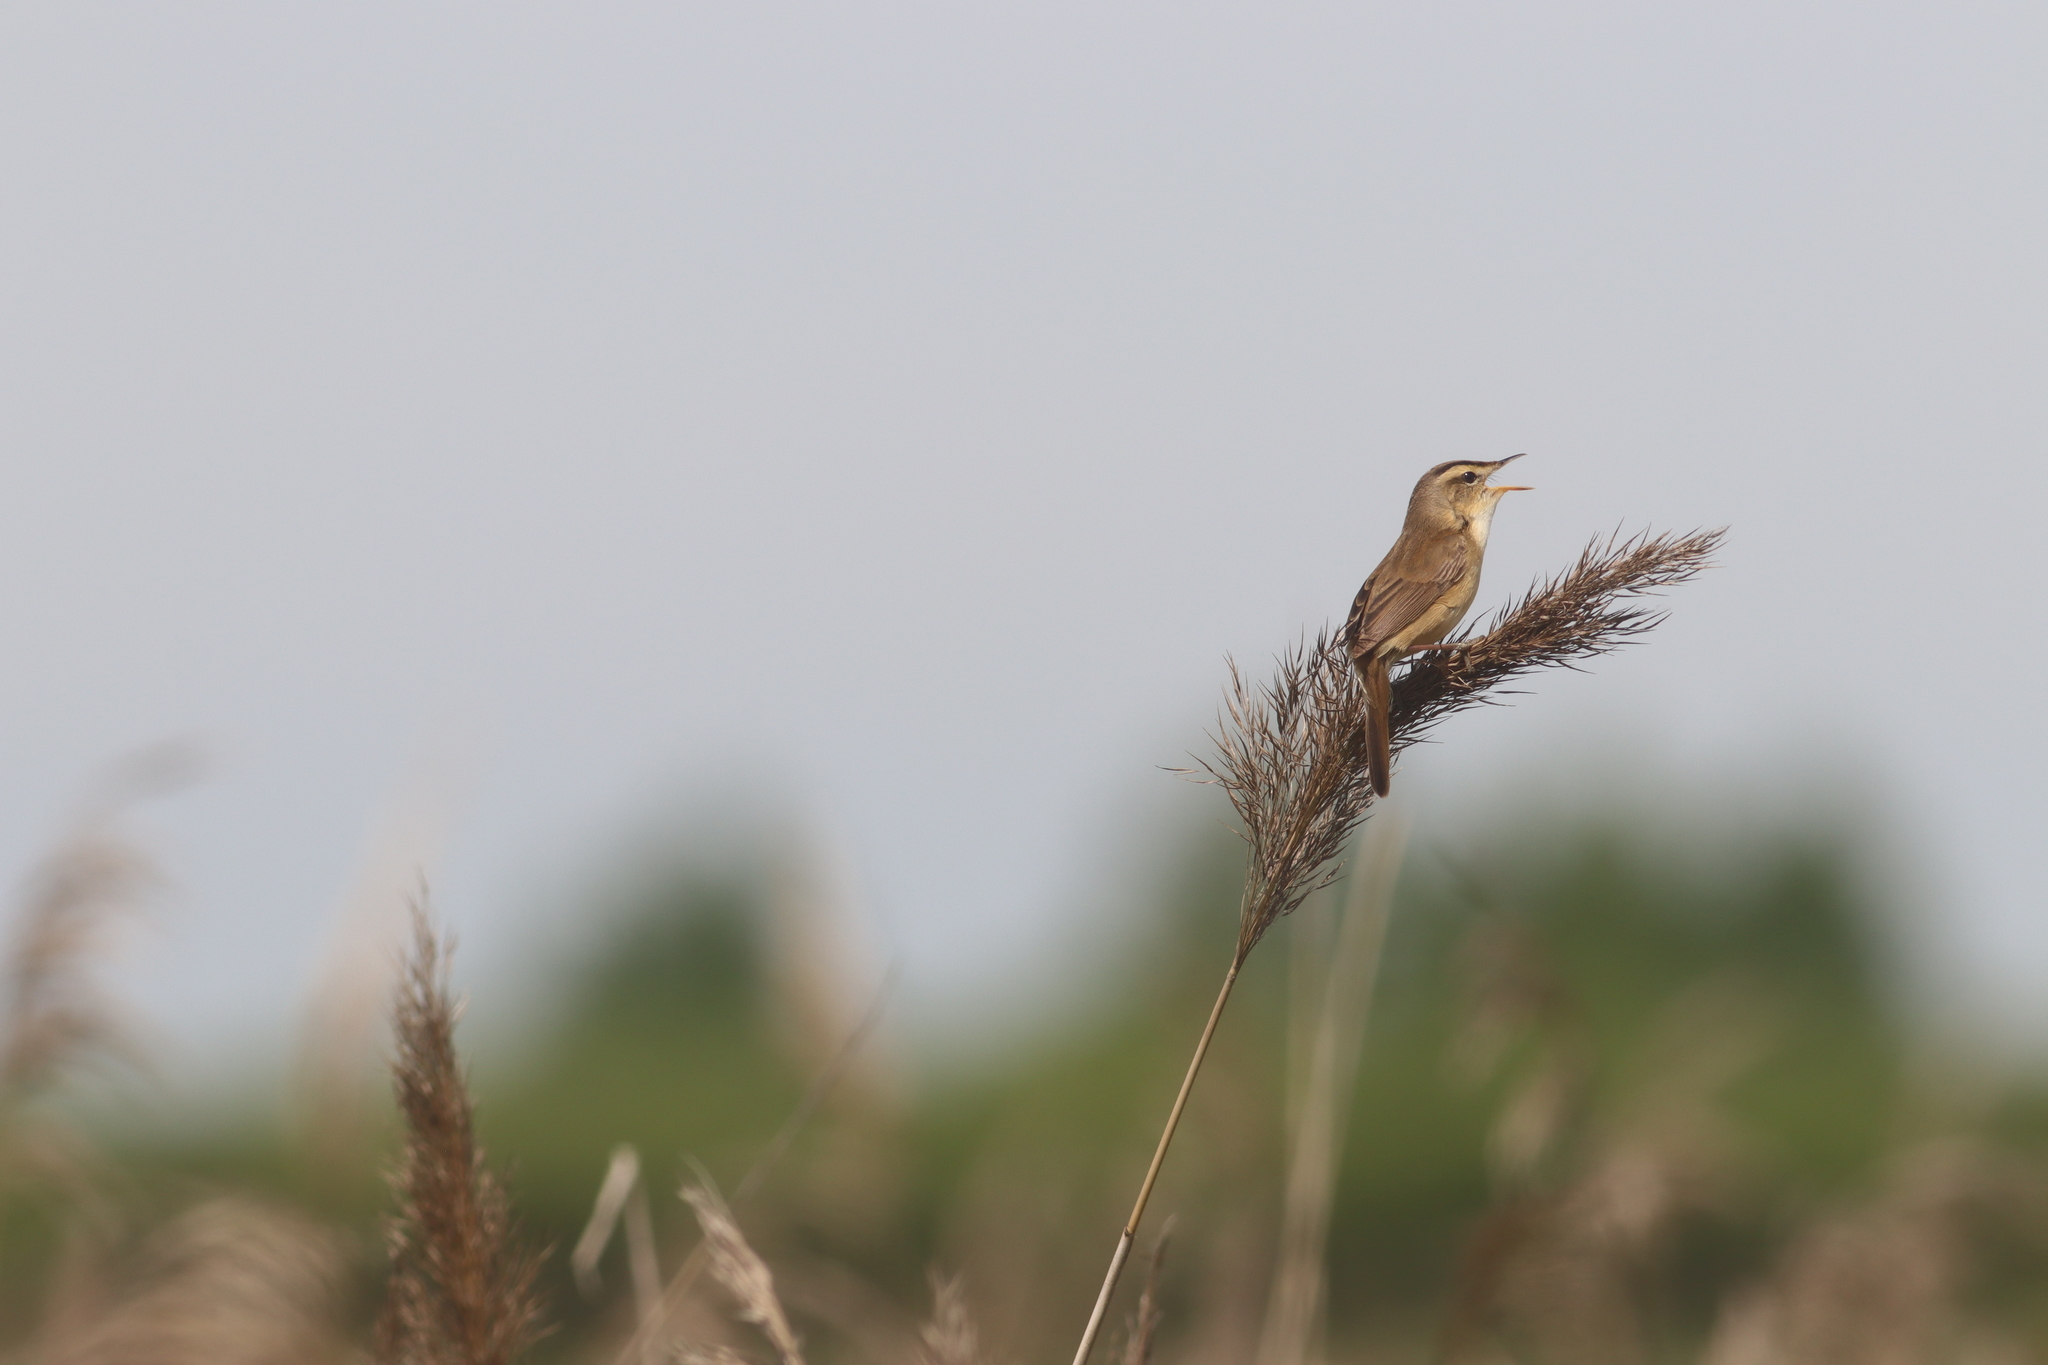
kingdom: Animalia
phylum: Chordata
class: Aves
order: Passeriformes
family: Acrocephalidae
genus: Acrocephalus
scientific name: Acrocephalus bistrigiceps
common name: Black-browed reed warbler
